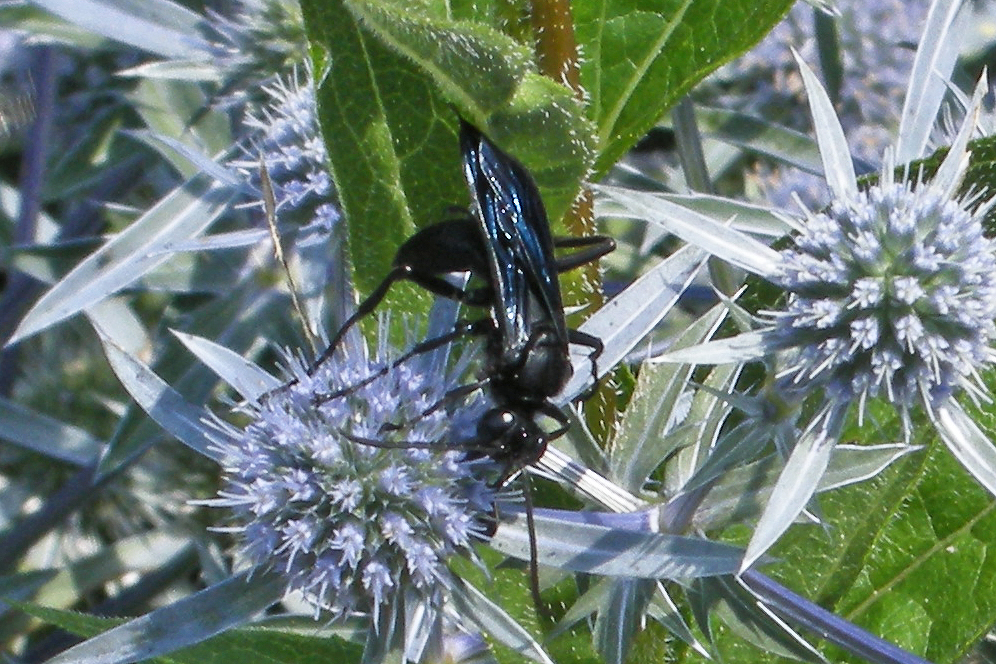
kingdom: Animalia
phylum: Arthropoda
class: Insecta
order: Hymenoptera
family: Sphecidae
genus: Sphex
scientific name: Sphex pensylvanicus
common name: Great black digger wasp
